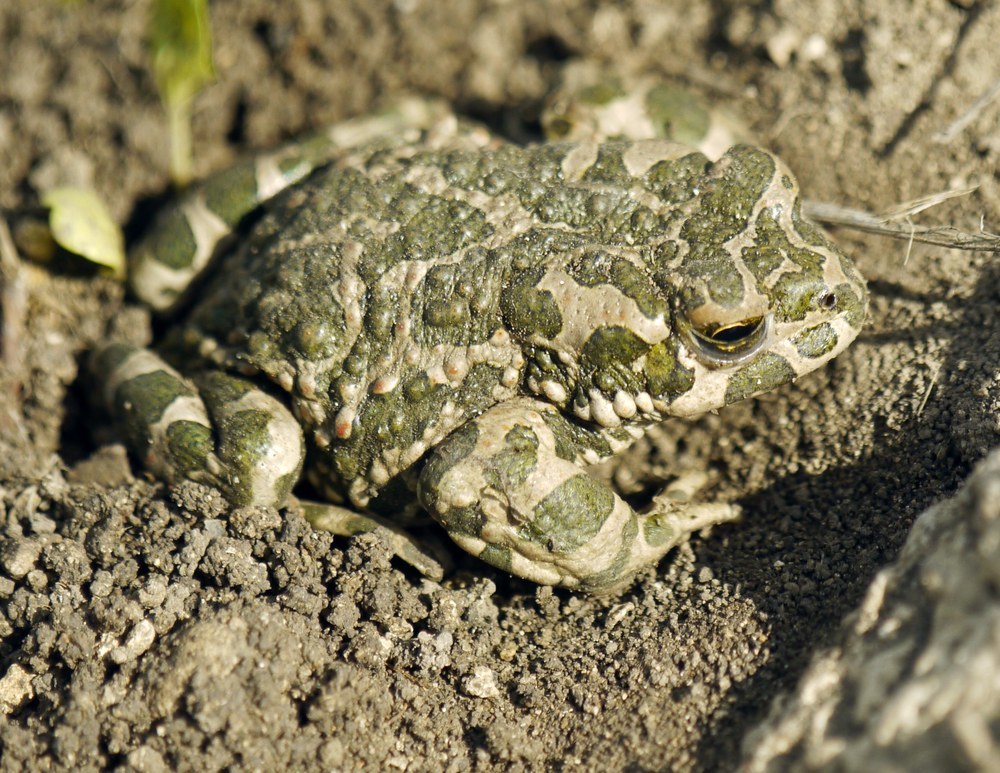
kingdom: Animalia
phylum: Chordata
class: Amphibia
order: Anura
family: Bufonidae
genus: Bufotes
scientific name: Bufotes viridis
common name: European green toad
